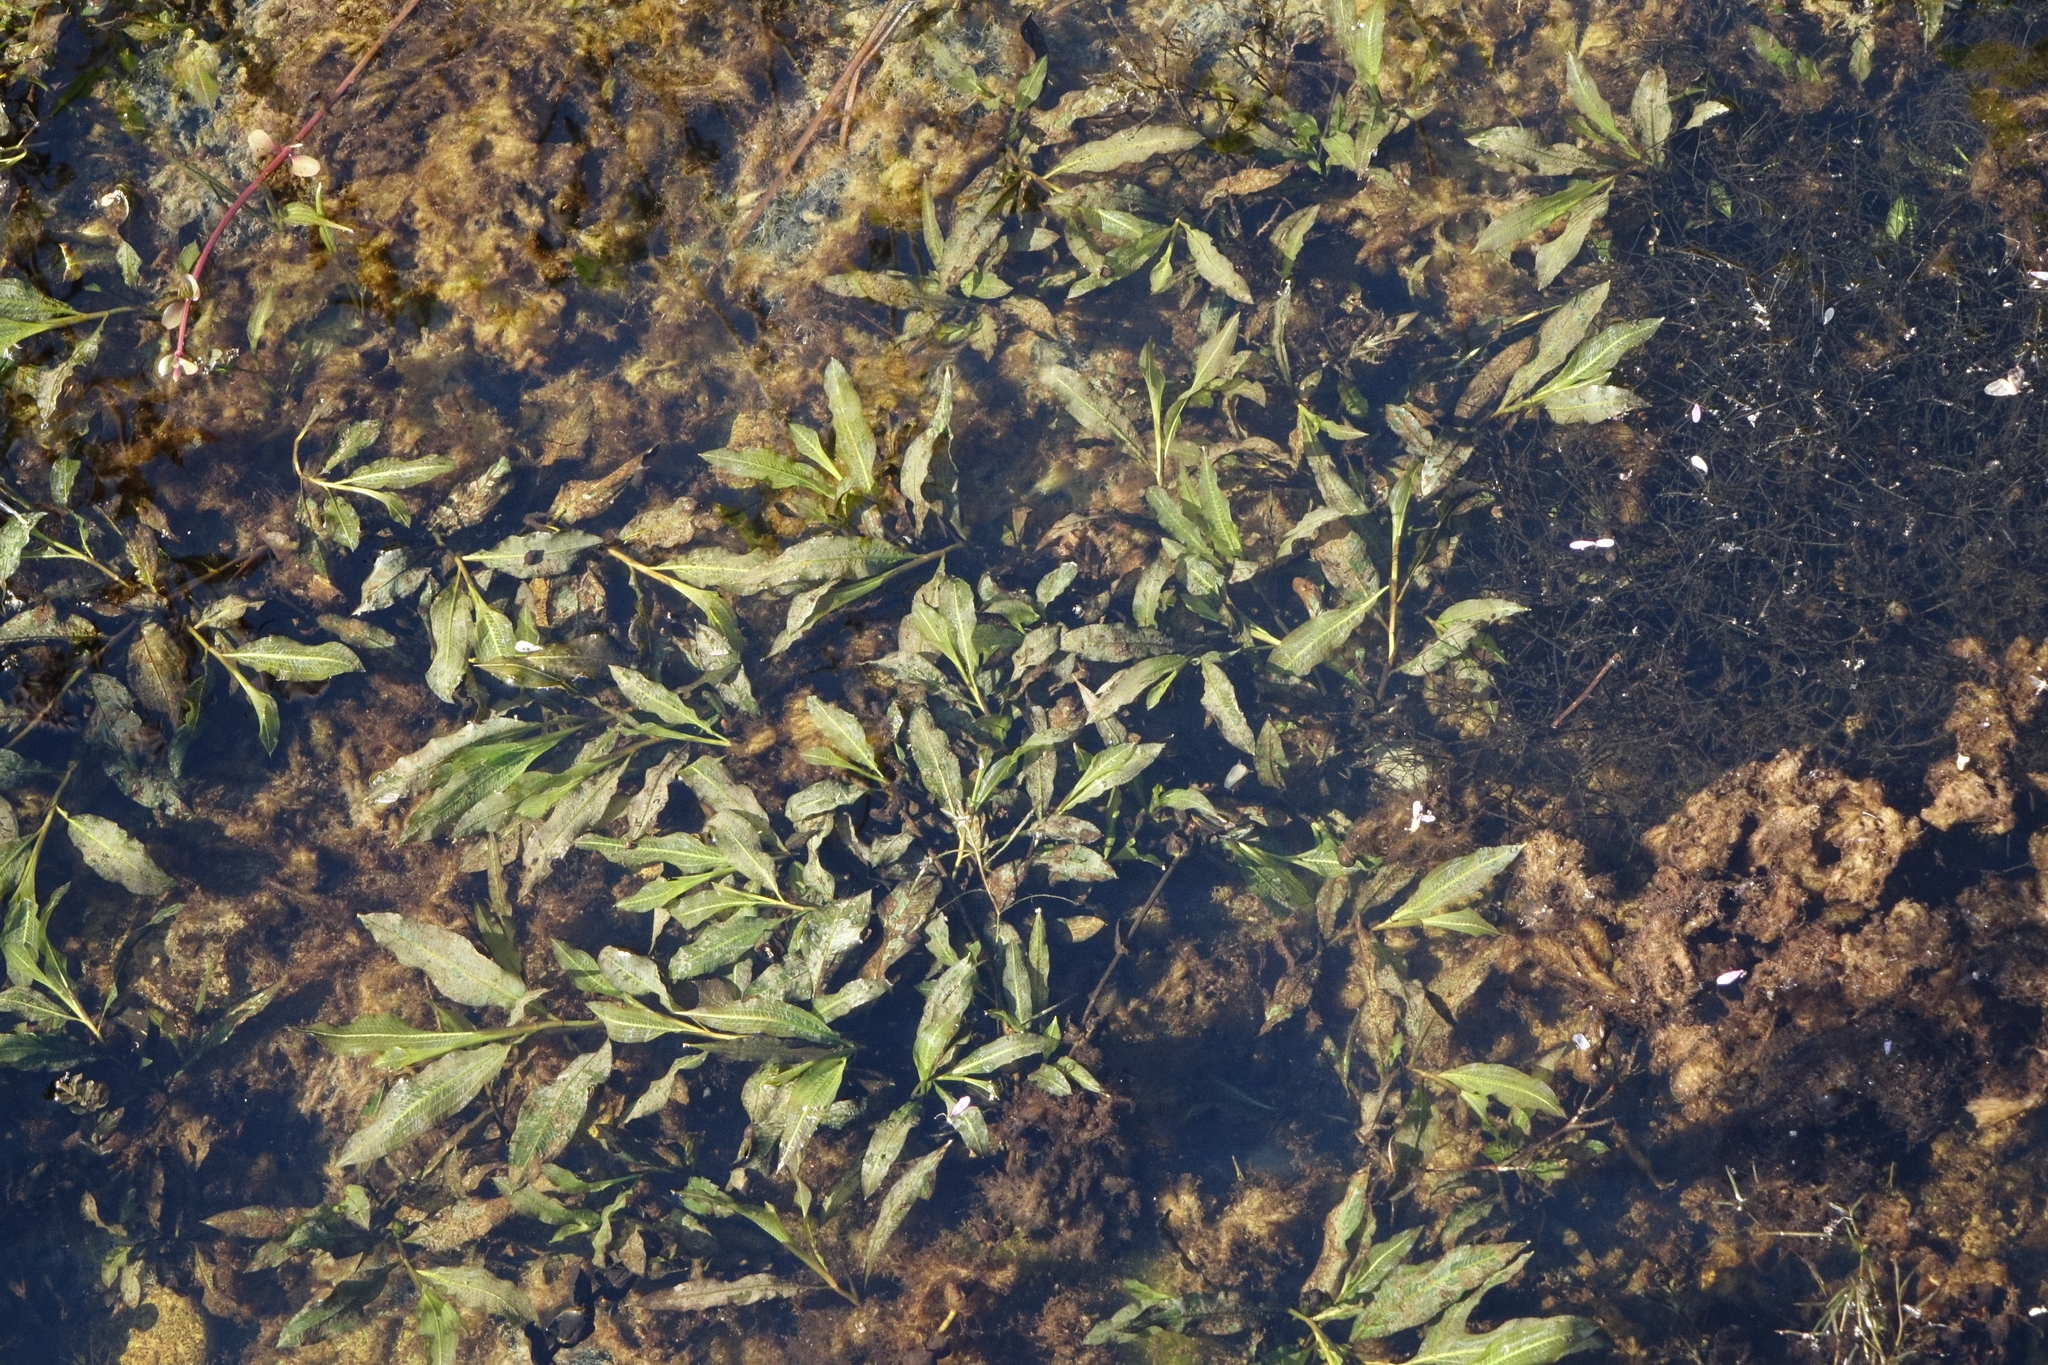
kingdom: Plantae
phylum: Tracheophyta
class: Liliopsida
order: Alismatales
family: Potamogetonaceae
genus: Potamogeton
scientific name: Potamogeton lucens
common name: Shining pondweed
